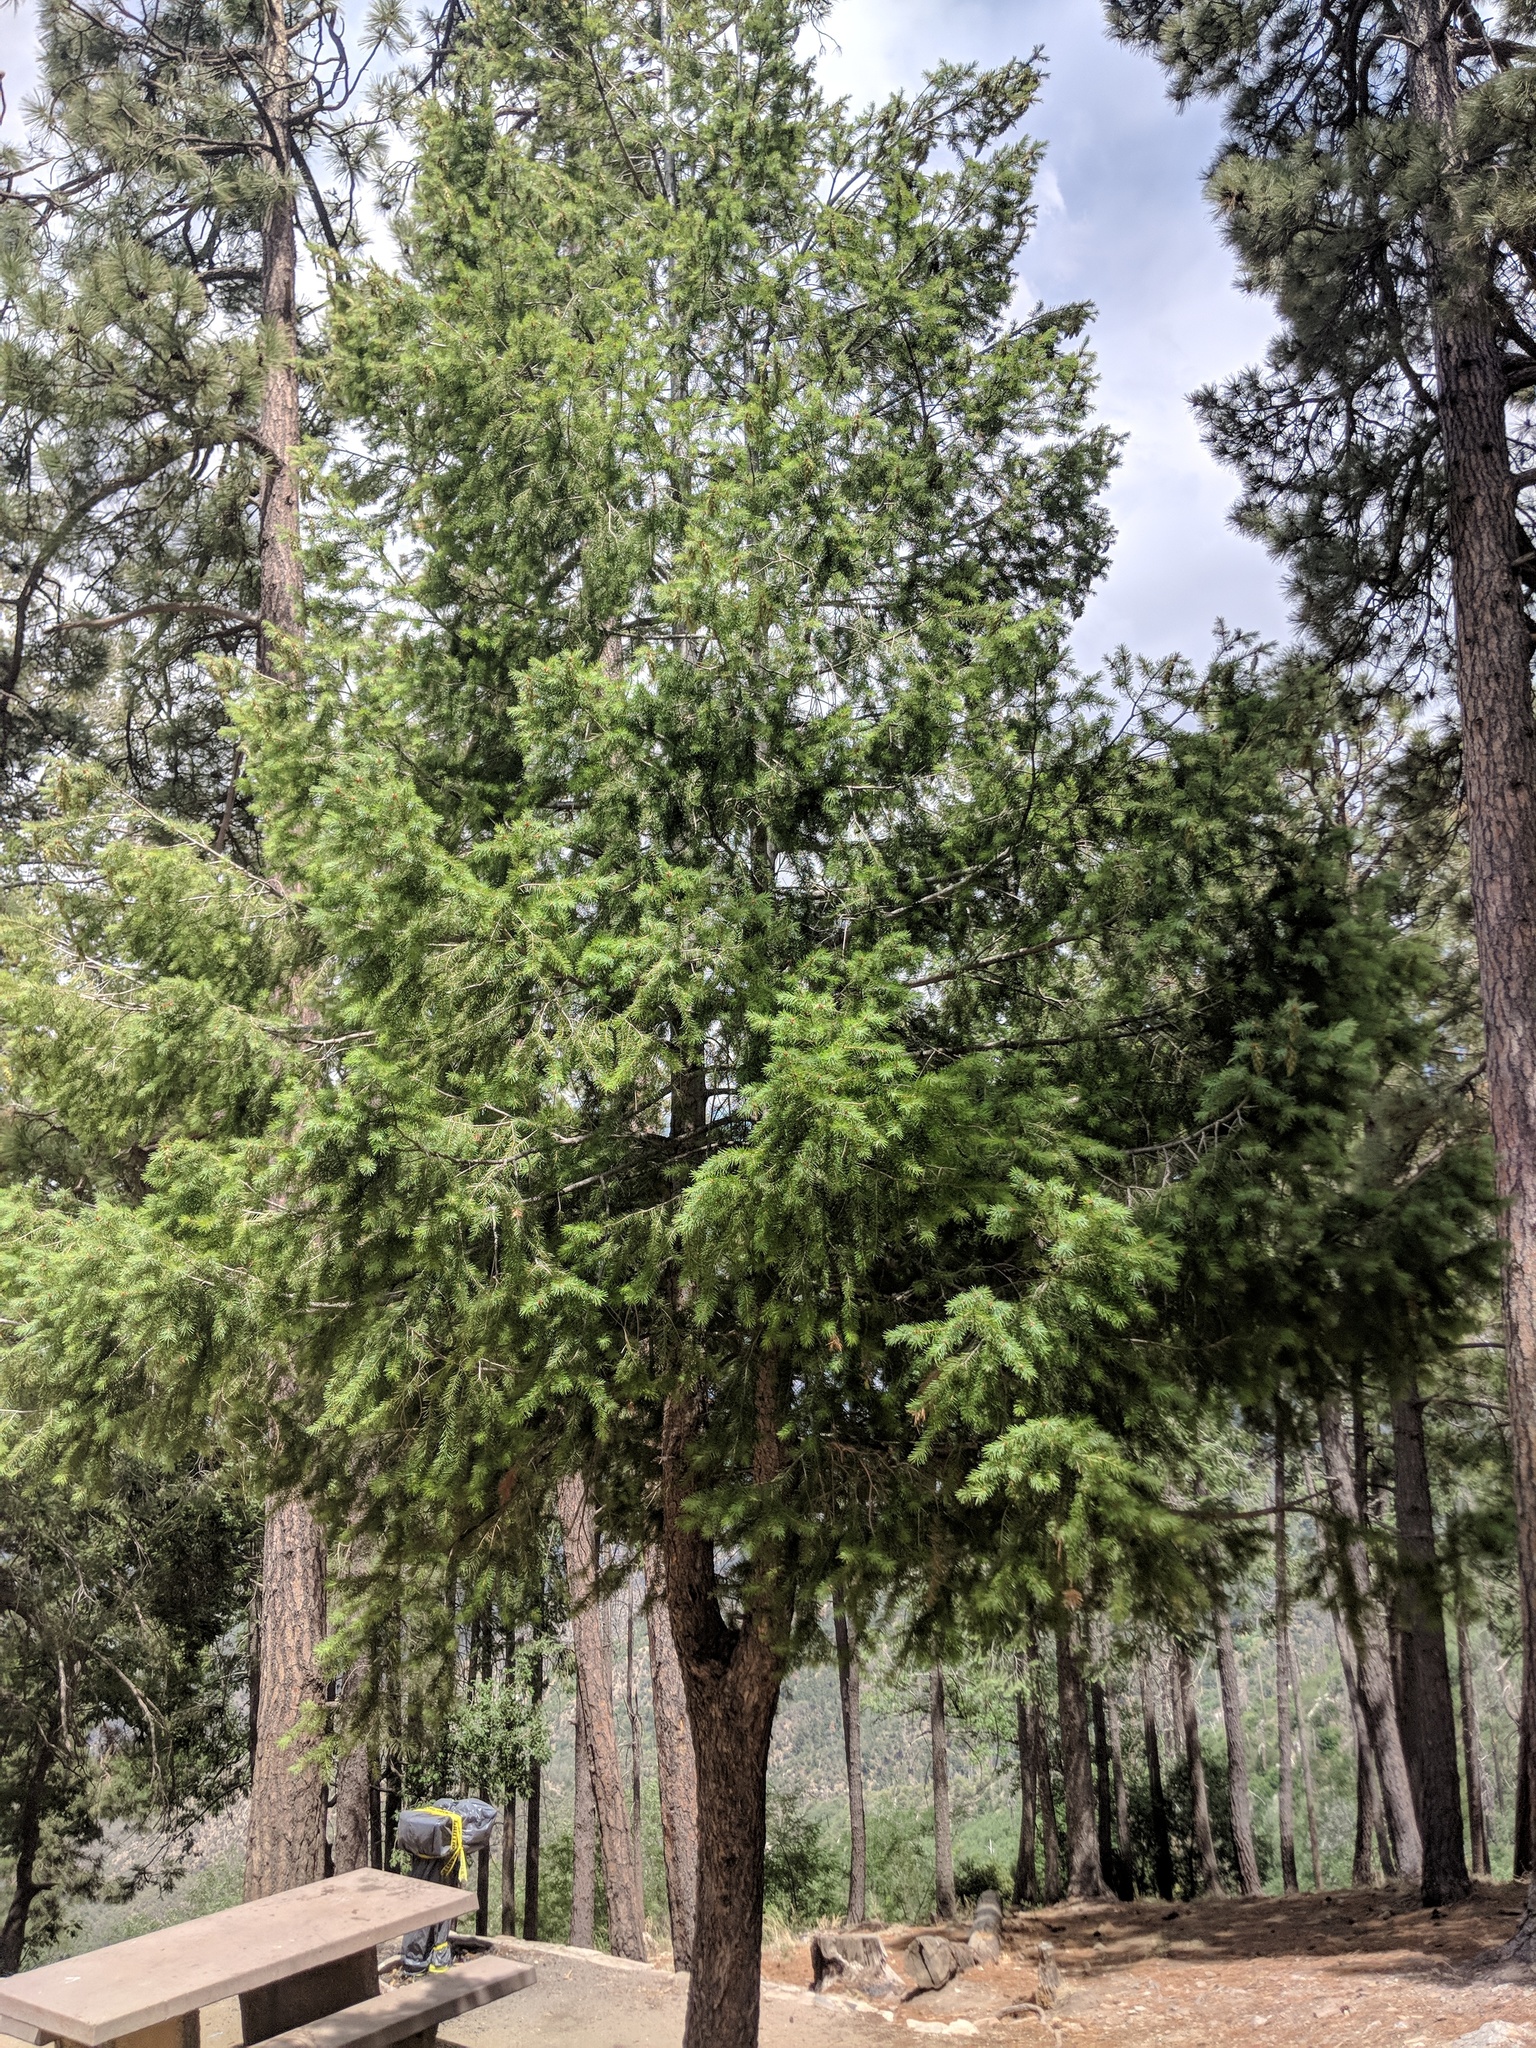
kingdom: Plantae
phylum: Tracheophyta
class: Pinopsida
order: Pinales
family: Pinaceae
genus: Pseudotsuga
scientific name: Pseudotsuga menziesii
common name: Douglas fir
